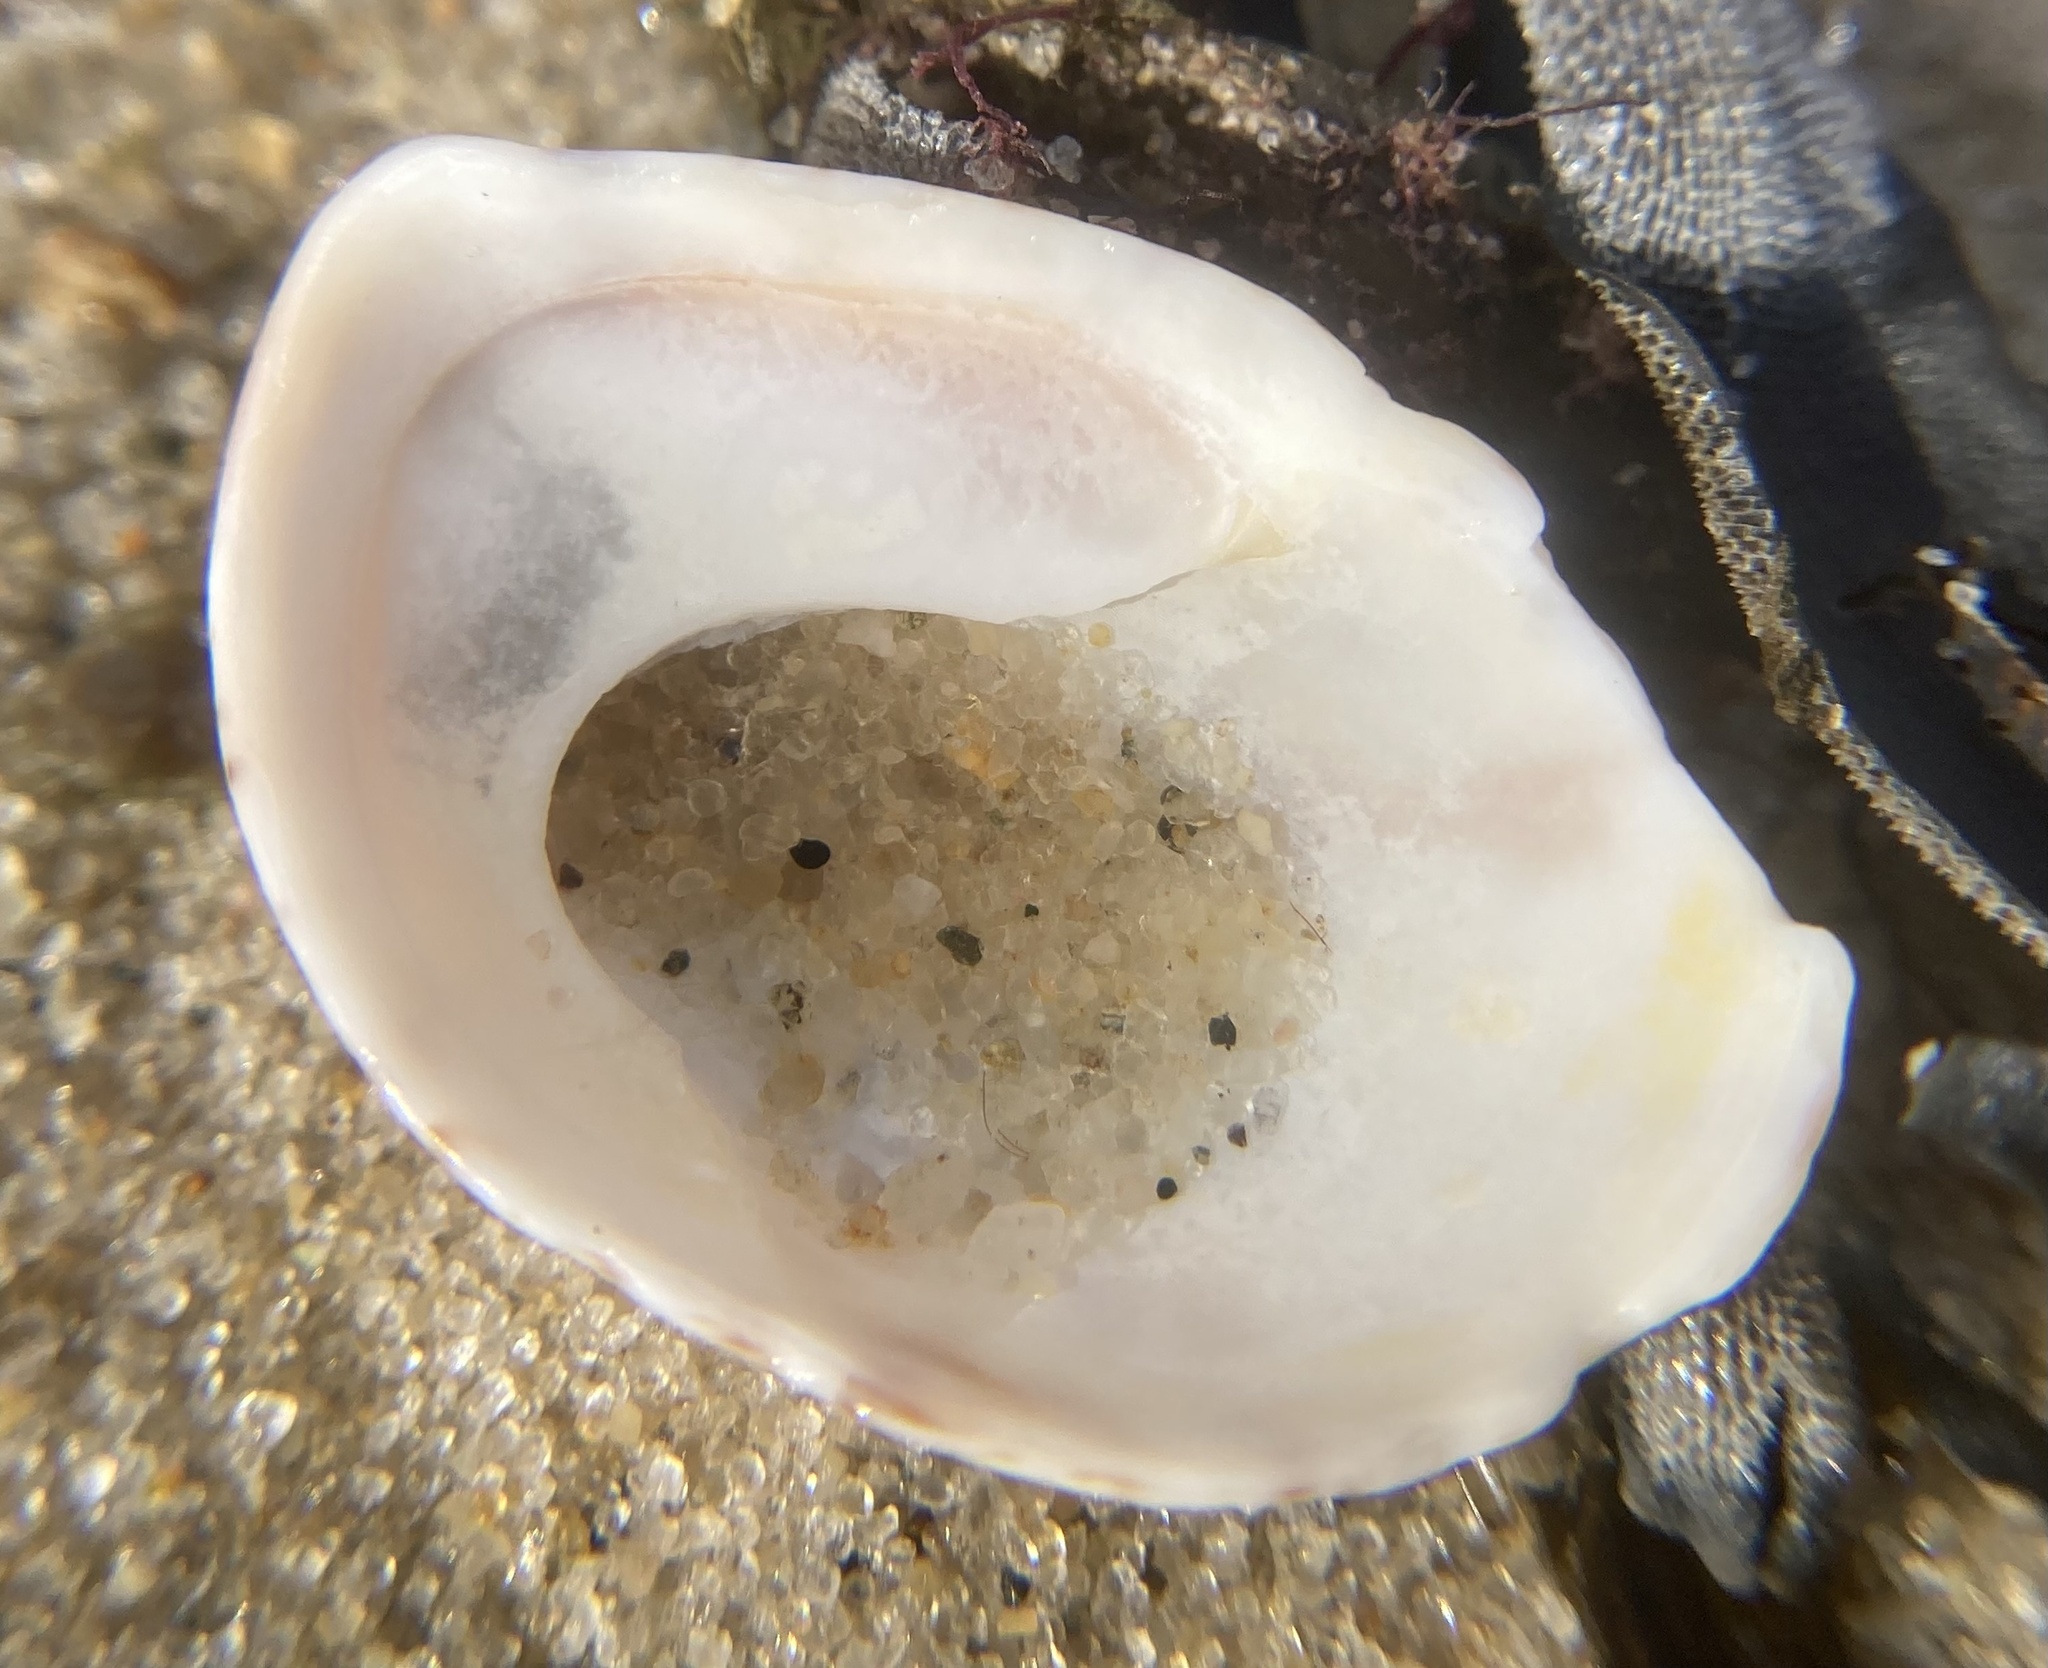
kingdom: Animalia
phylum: Mollusca
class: Gastropoda
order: Littorinimorpha
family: Calyptraeidae
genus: Crepidula
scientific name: Crepidula fornicata
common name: Slipper limpet
